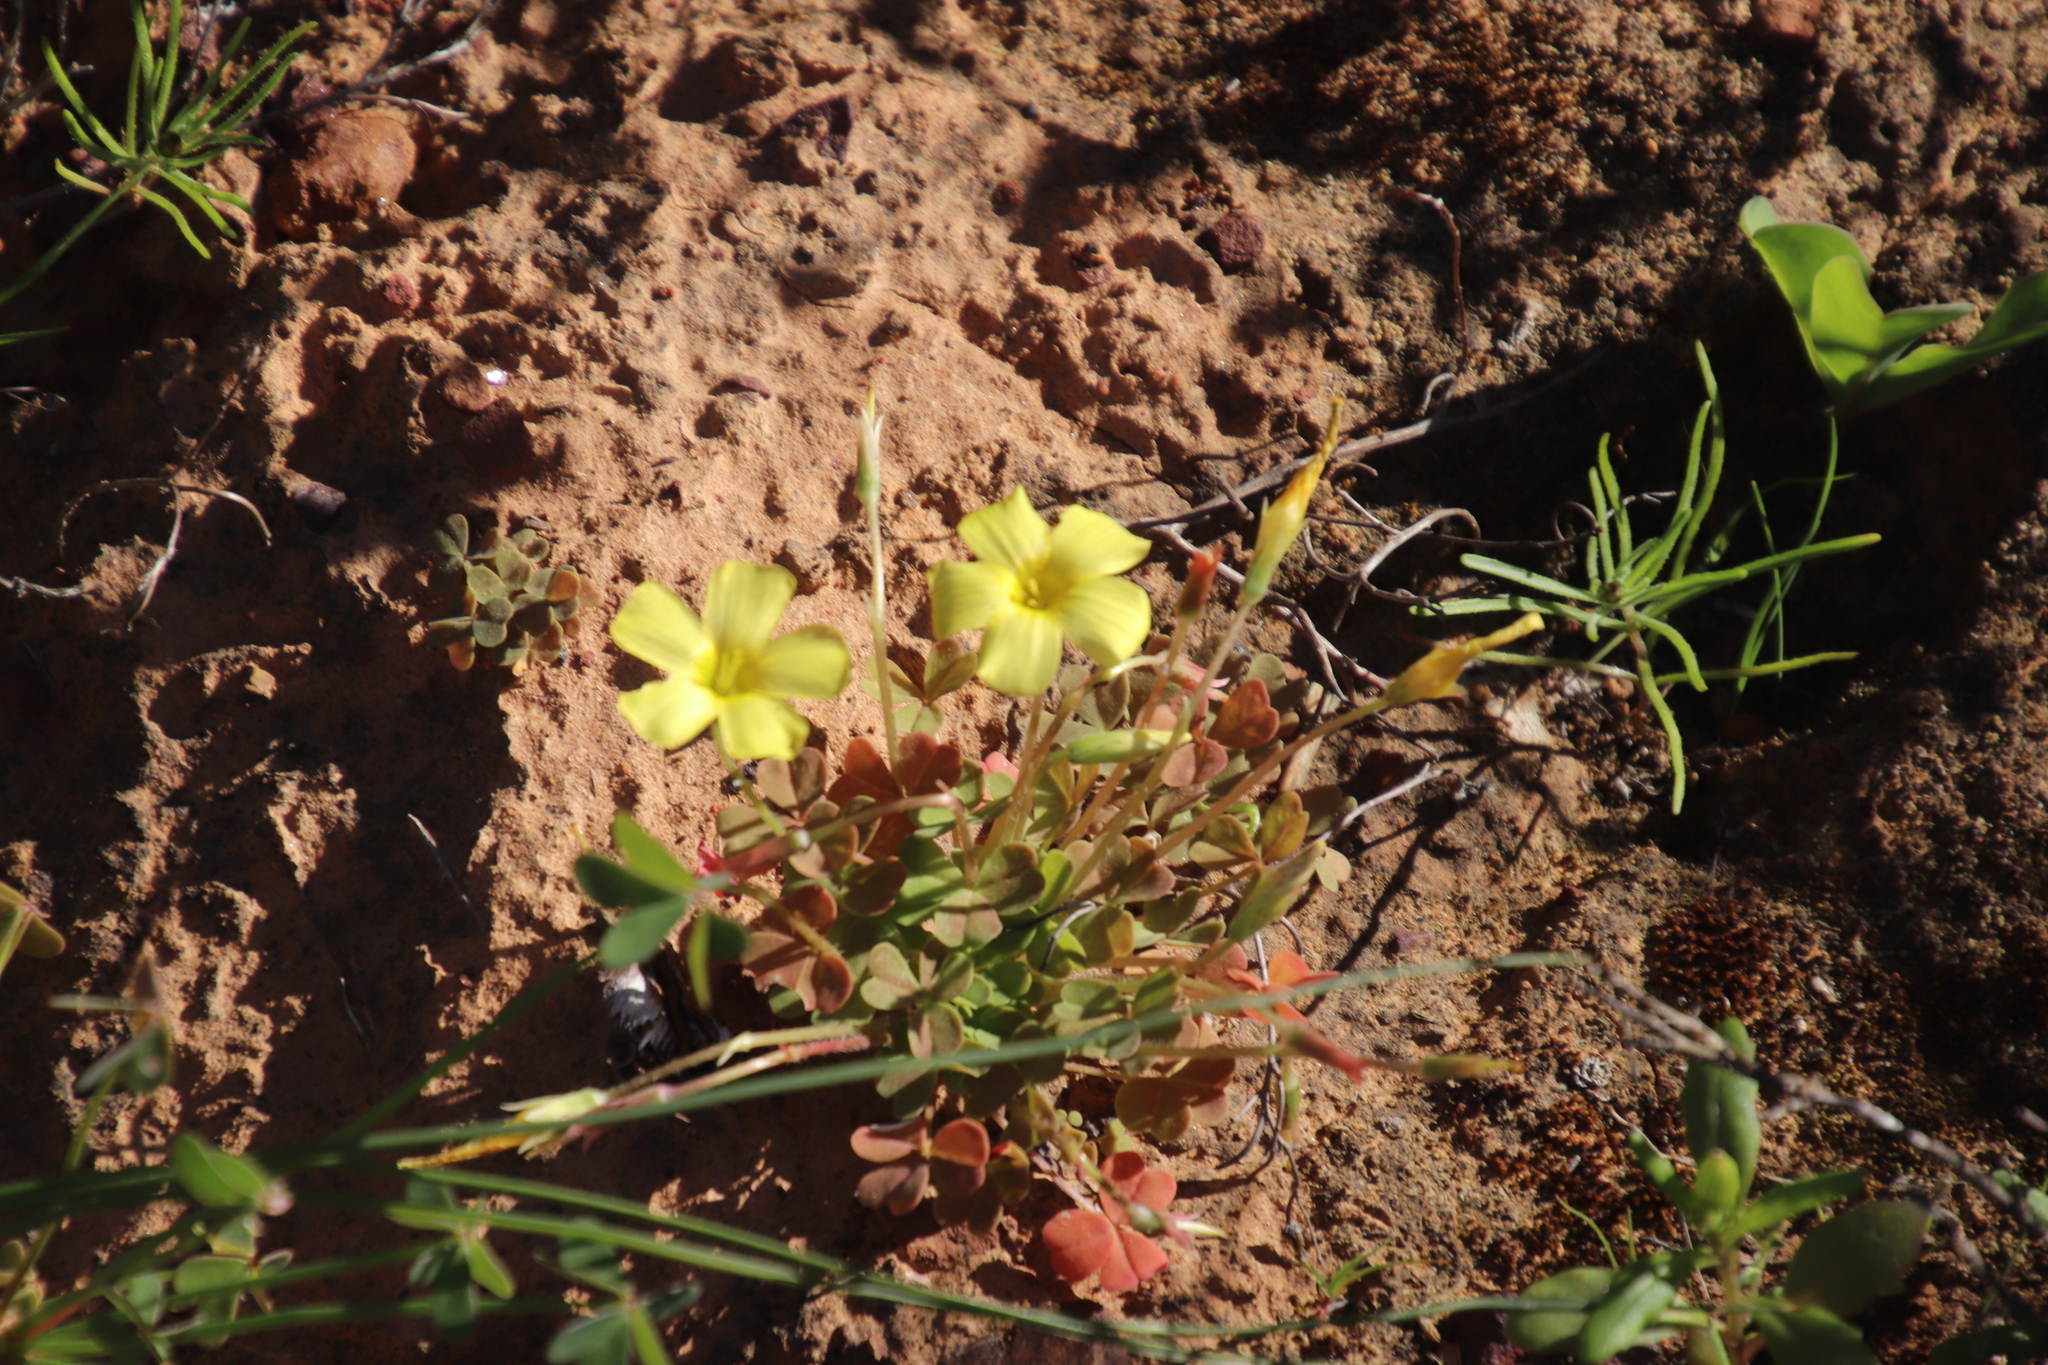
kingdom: Plantae
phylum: Tracheophyta
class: Magnoliopsida
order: Oxalidales
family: Oxalidaceae
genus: Oxalis
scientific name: Oxalis obtusa
